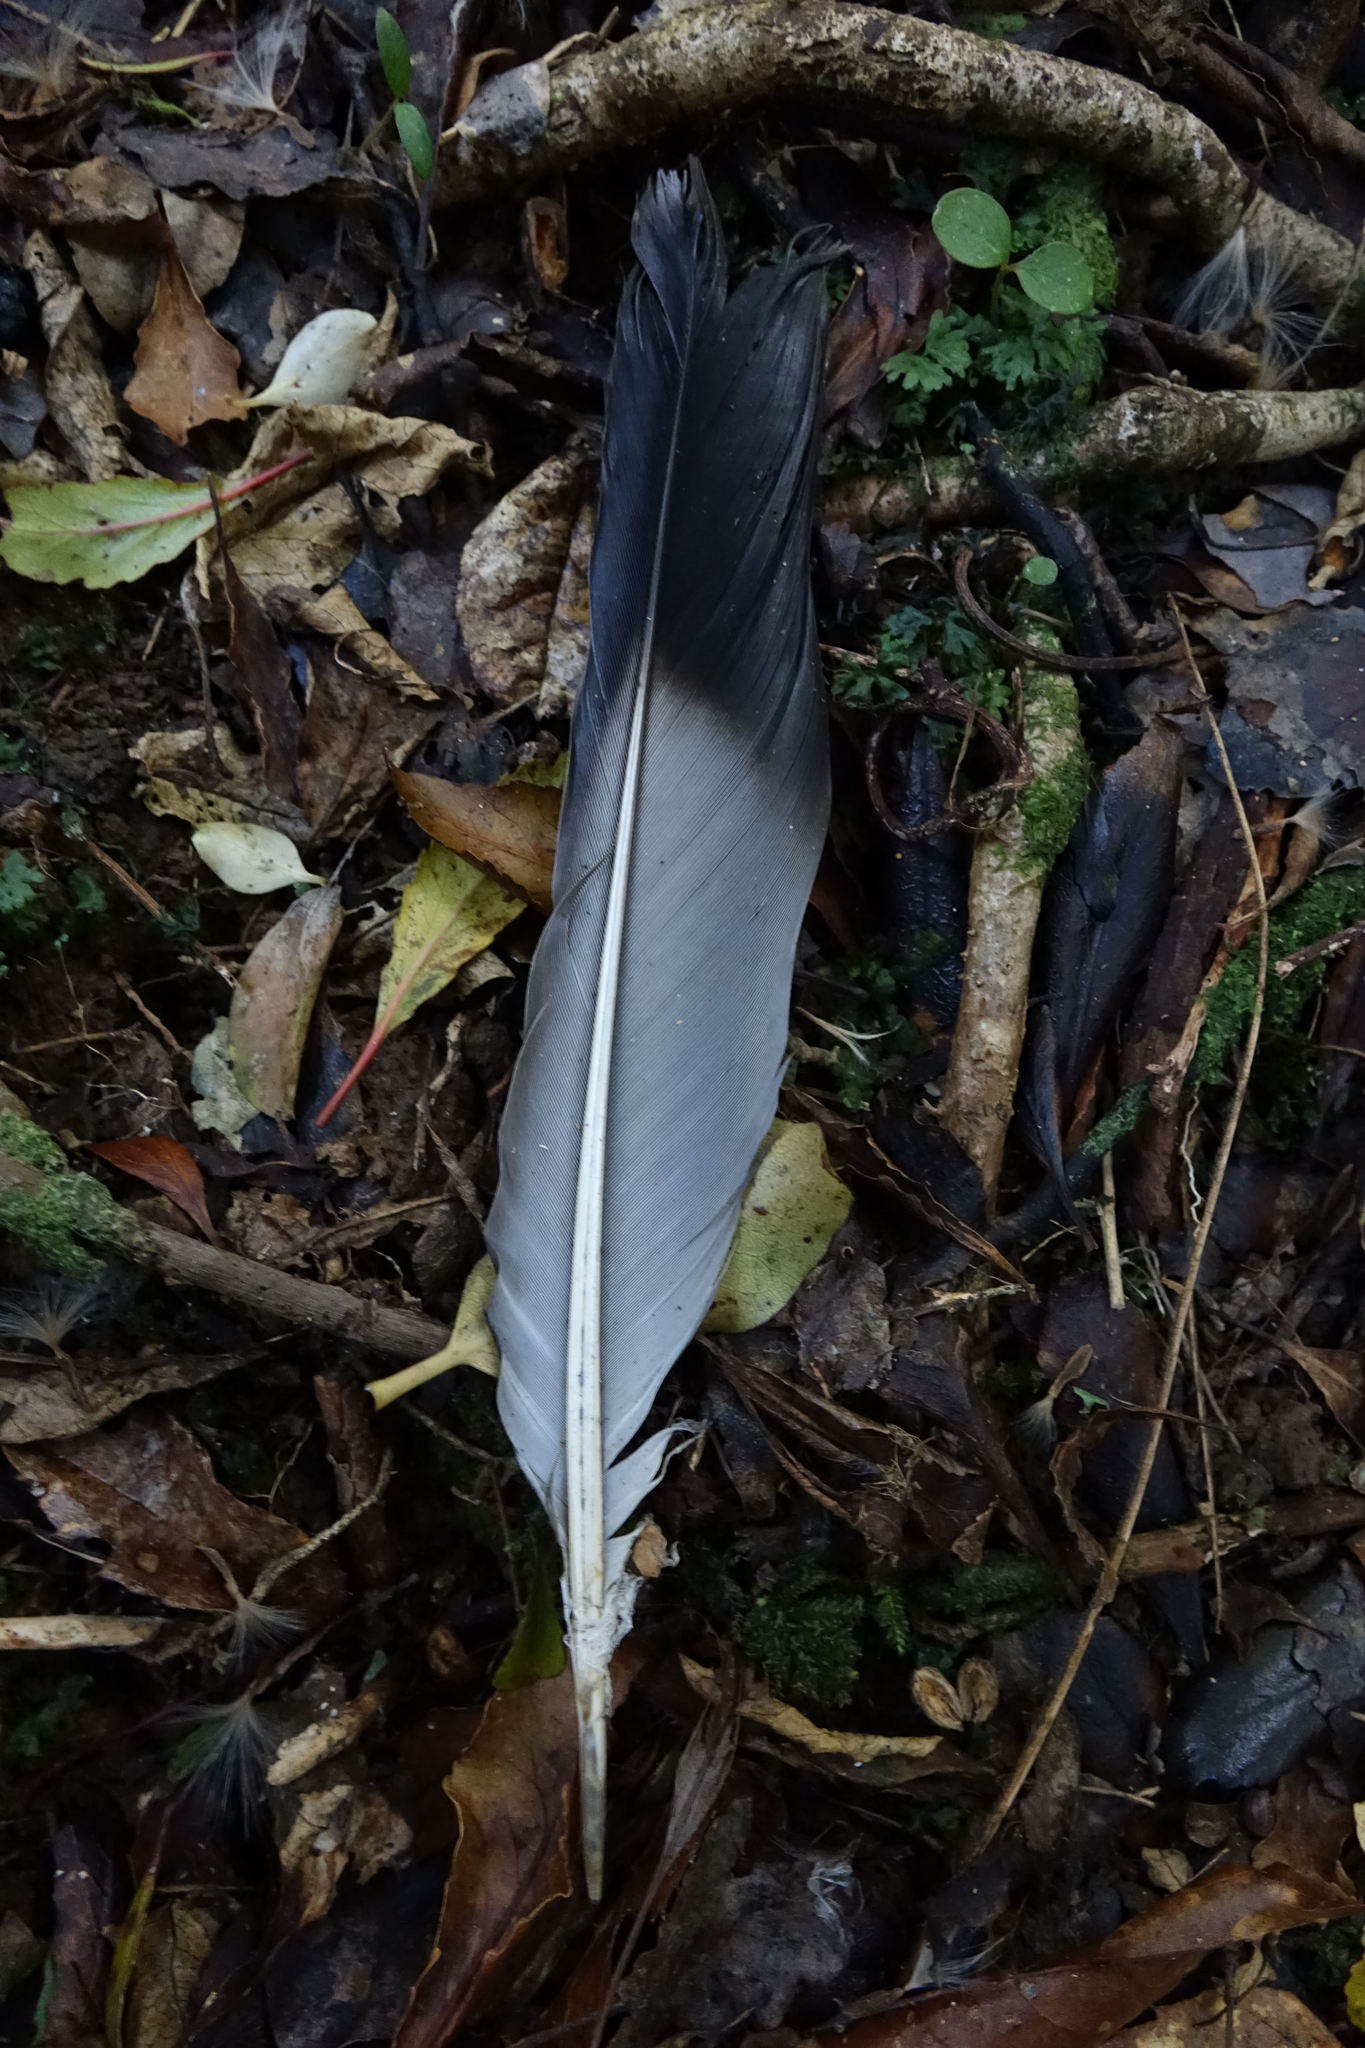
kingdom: Animalia
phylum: Chordata
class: Aves
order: Columbiformes
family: Columbidae
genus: Hemiphaga
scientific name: Hemiphaga novaeseelandiae
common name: New zealand pigeon
